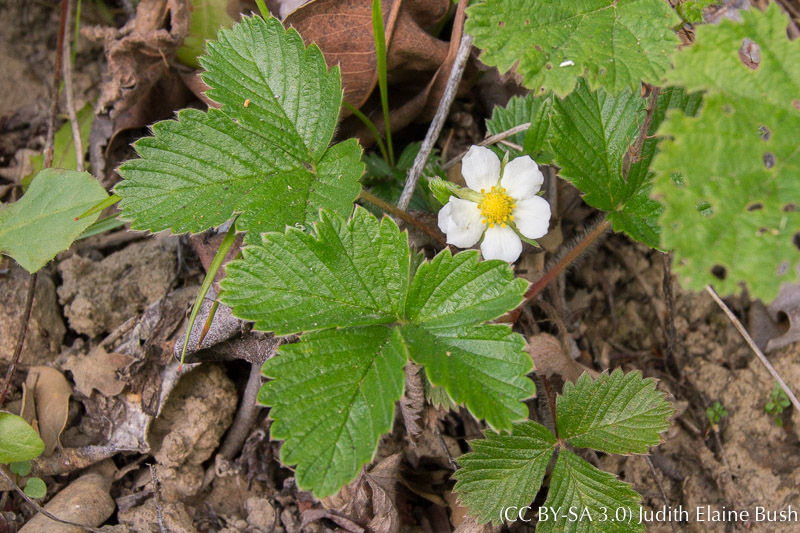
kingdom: Plantae
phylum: Tracheophyta
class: Magnoliopsida
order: Rosales
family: Rosaceae
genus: Fragaria
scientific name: Fragaria vesca
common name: Wild strawberry
